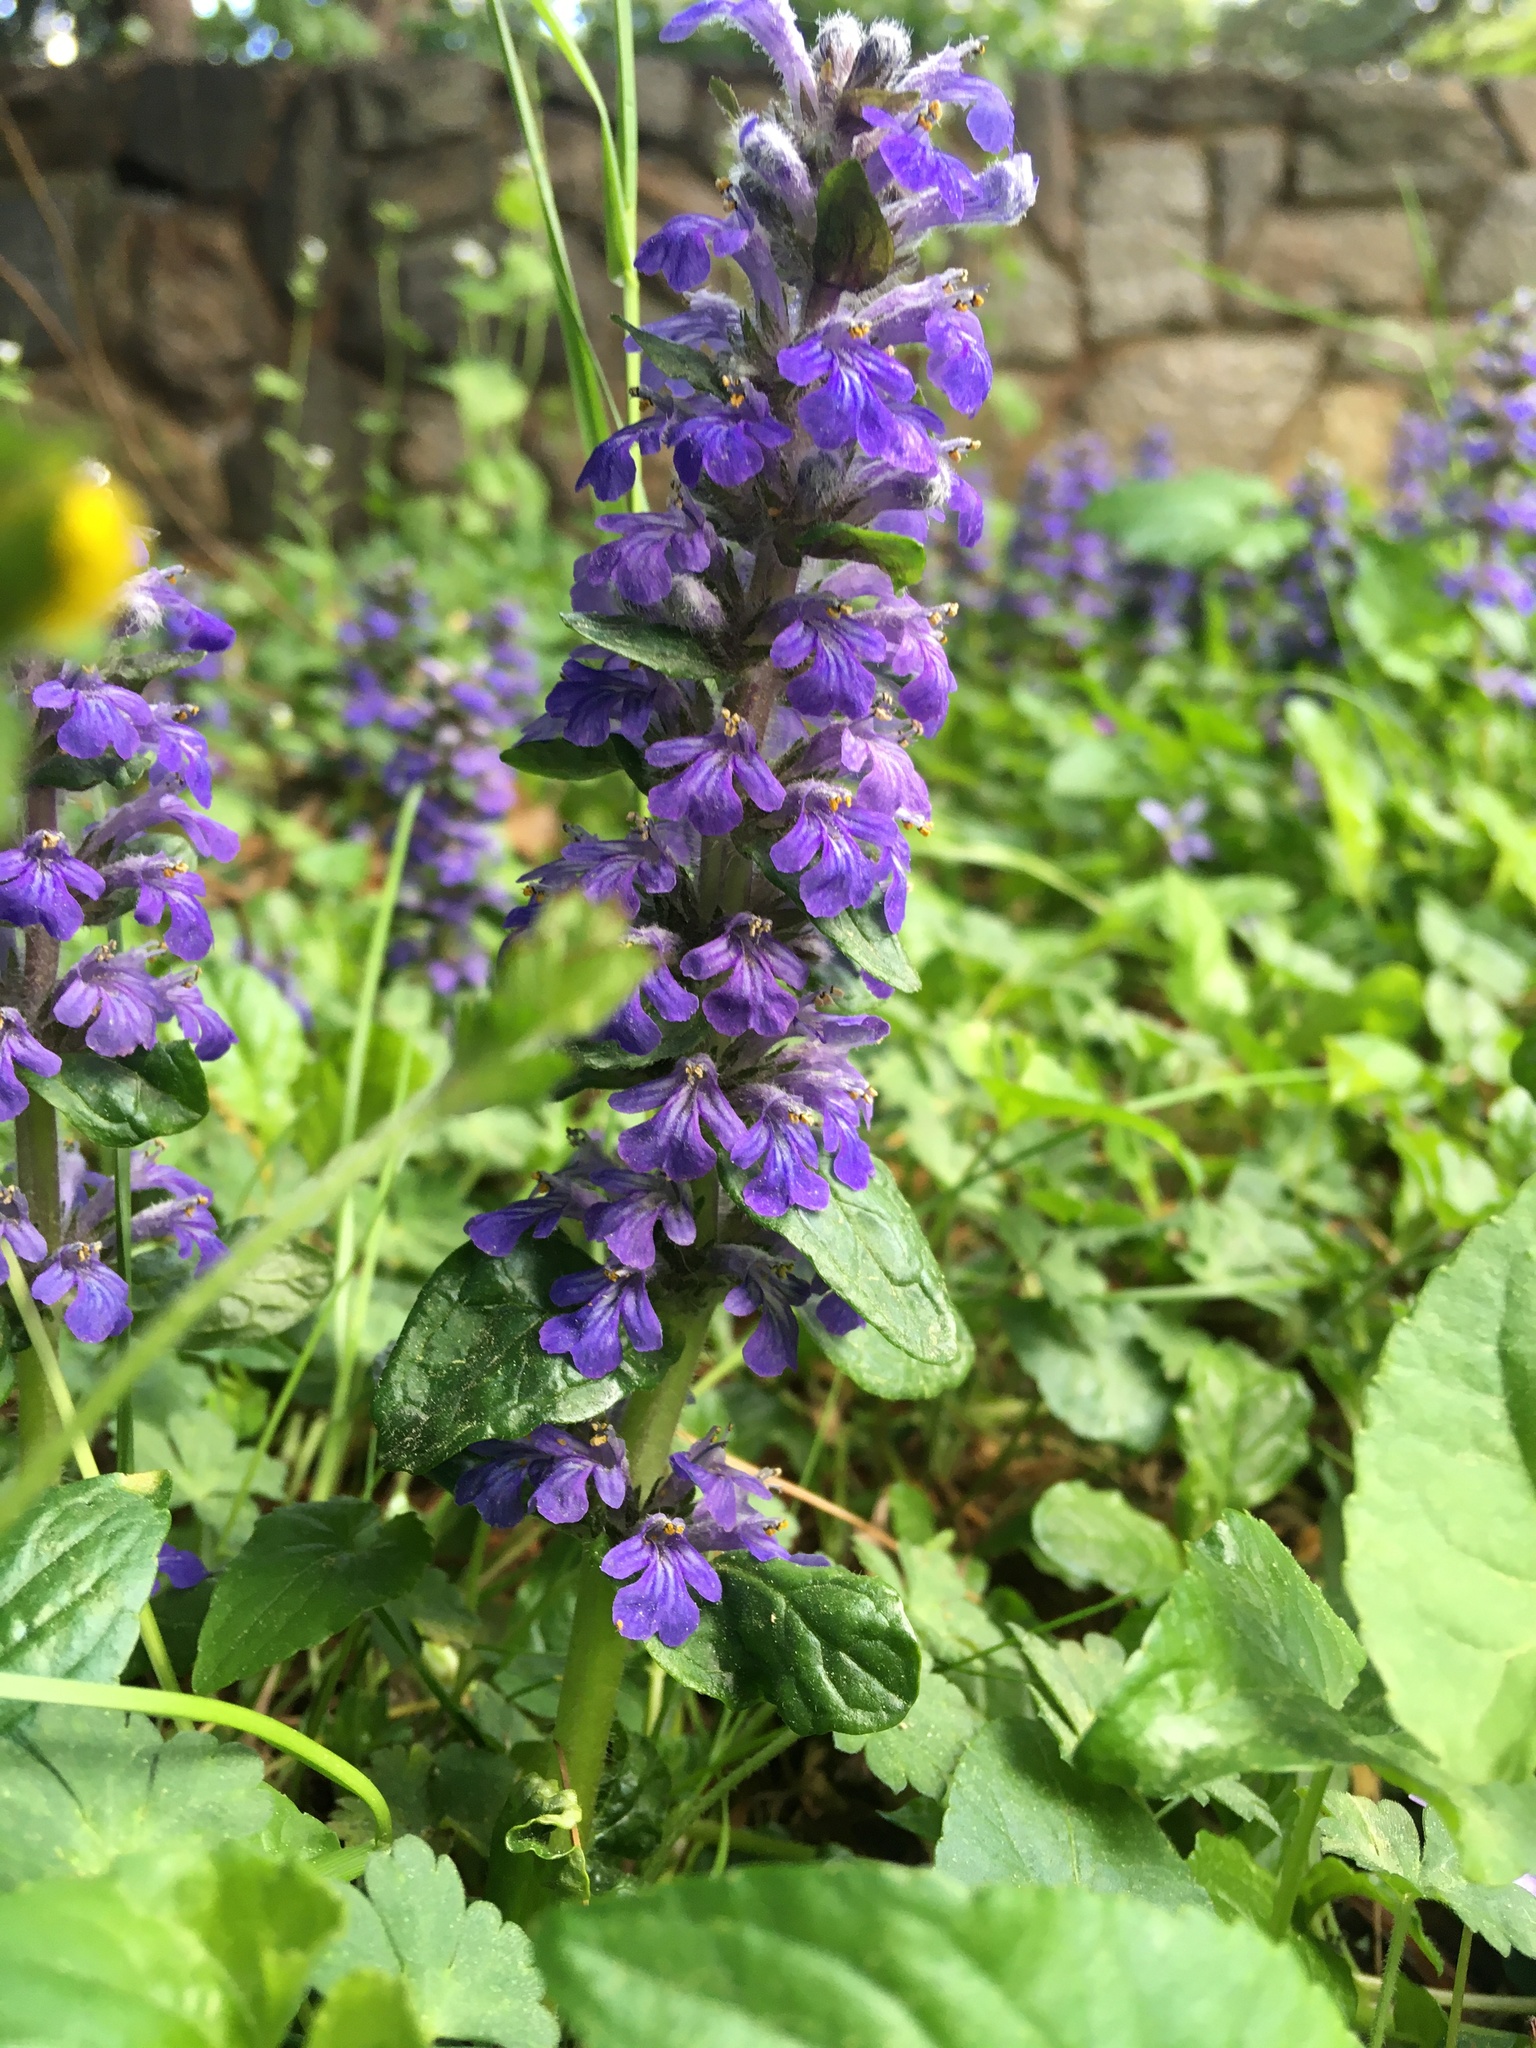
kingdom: Plantae
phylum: Tracheophyta
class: Magnoliopsida
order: Lamiales
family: Lamiaceae
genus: Ajuga
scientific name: Ajuga reptans
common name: Bugle
